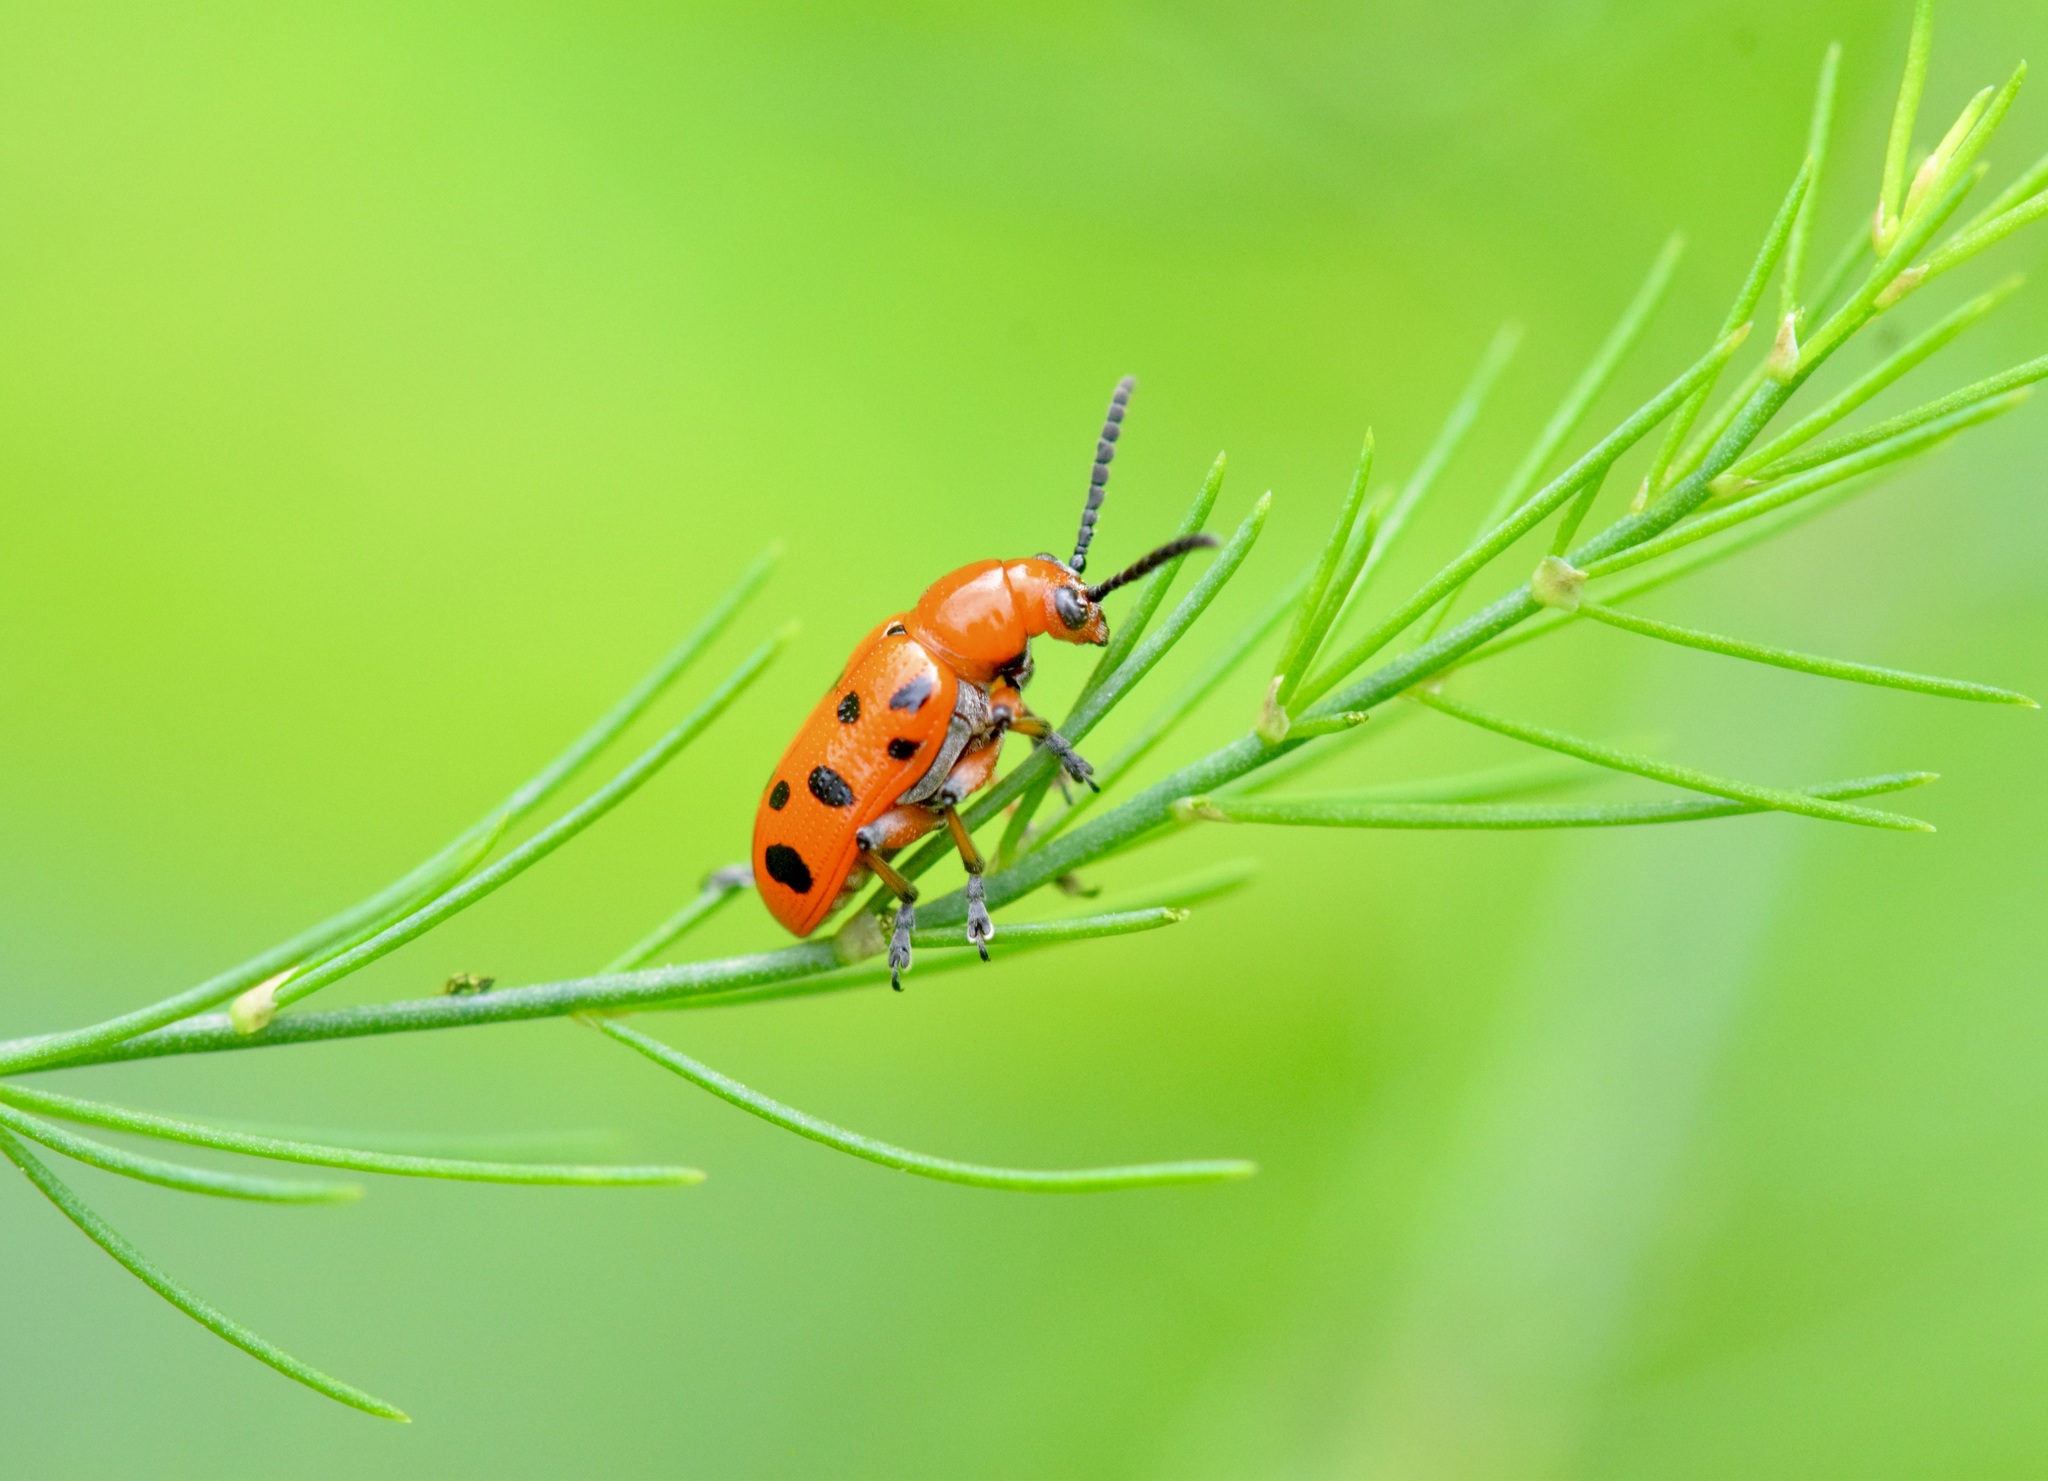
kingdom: Animalia
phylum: Arthropoda
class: Insecta
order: Coleoptera
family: Chrysomelidae
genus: Crioceris
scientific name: Crioceris duodecimpunctata
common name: Twelve-spotted asparagus beetle
